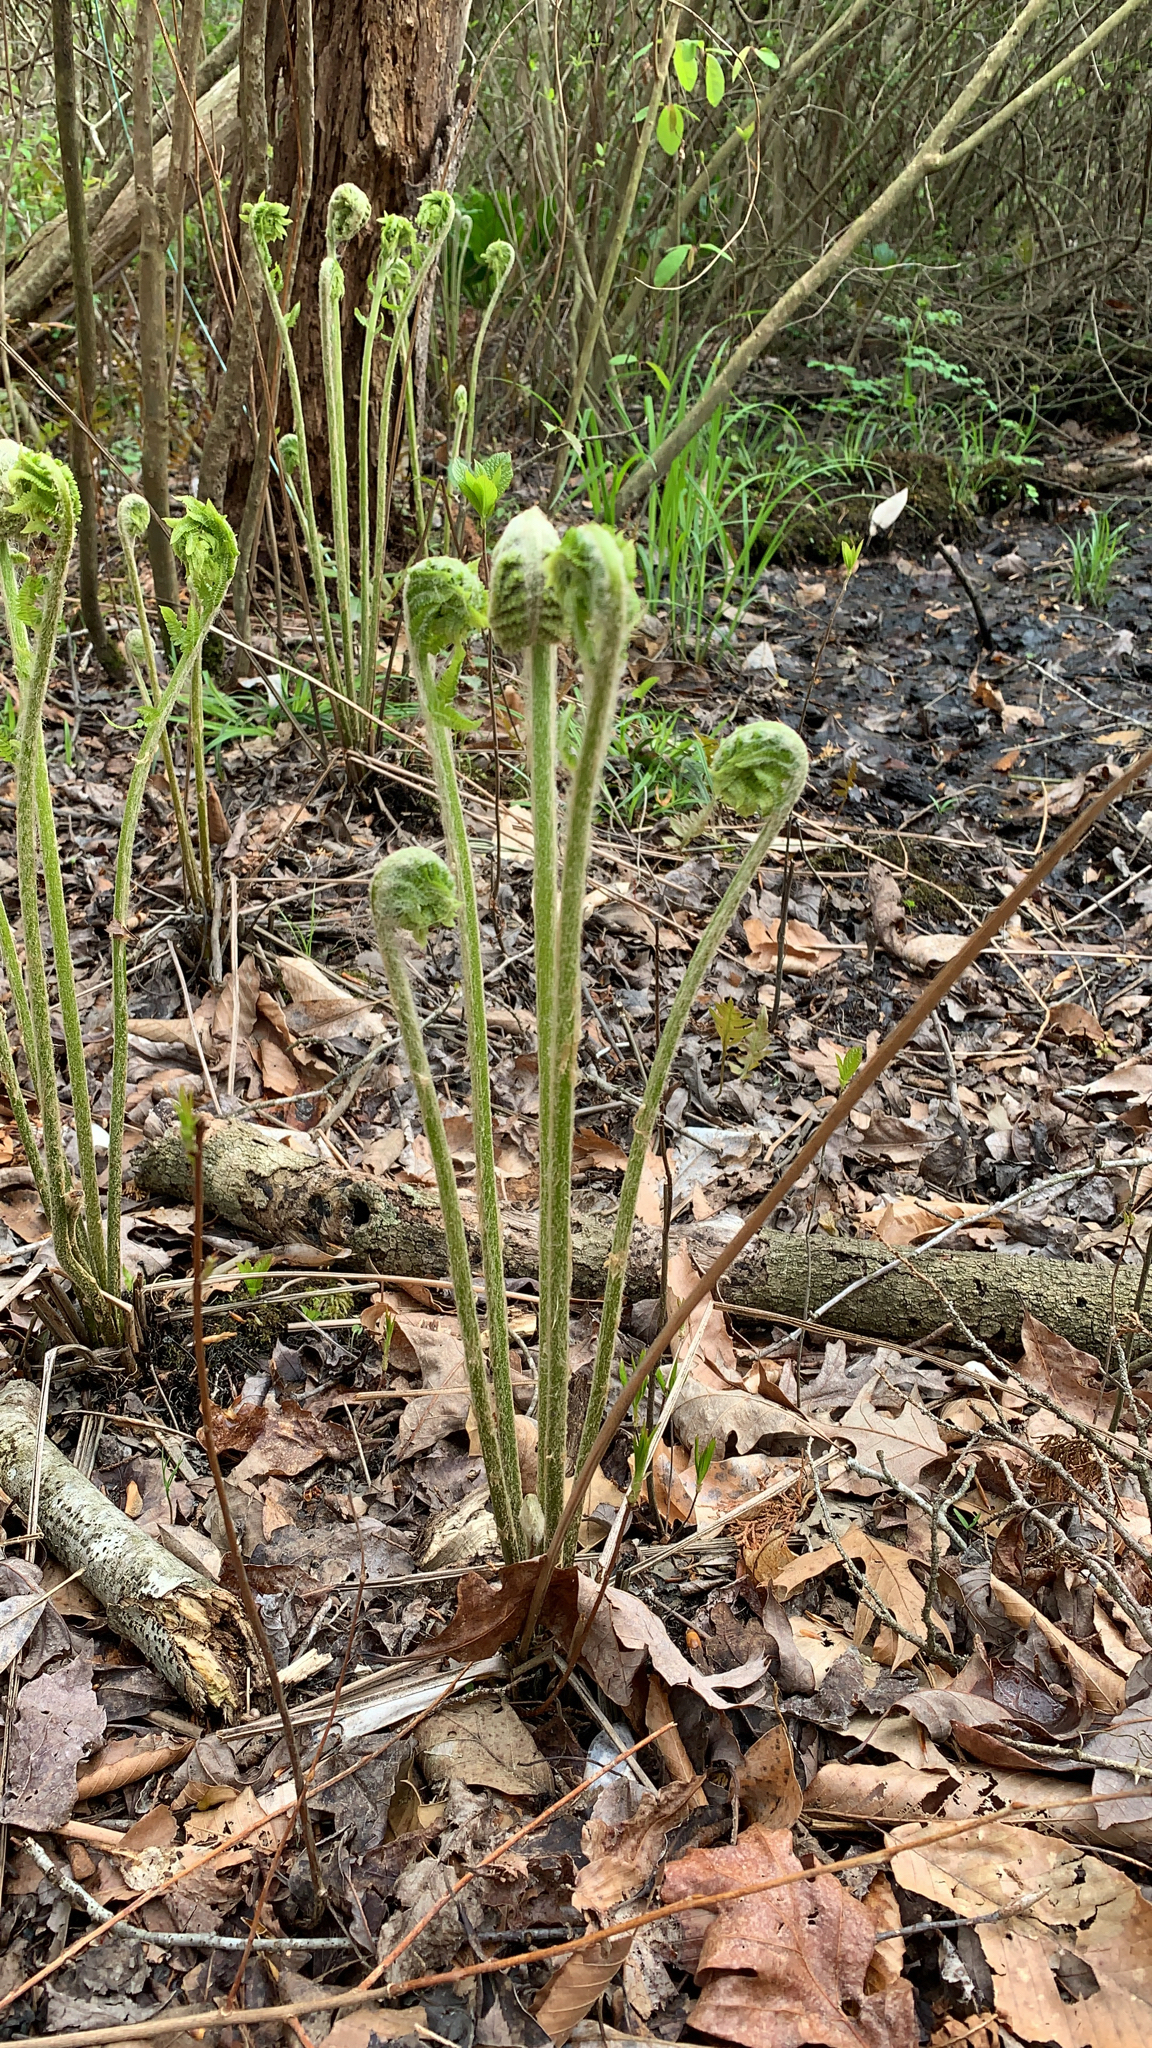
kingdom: Plantae
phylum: Tracheophyta
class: Polypodiopsida
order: Osmundales
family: Osmundaceae
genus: Osmundastrum
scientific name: Osmundastrum cinnamomeum
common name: Cinnamon fern
